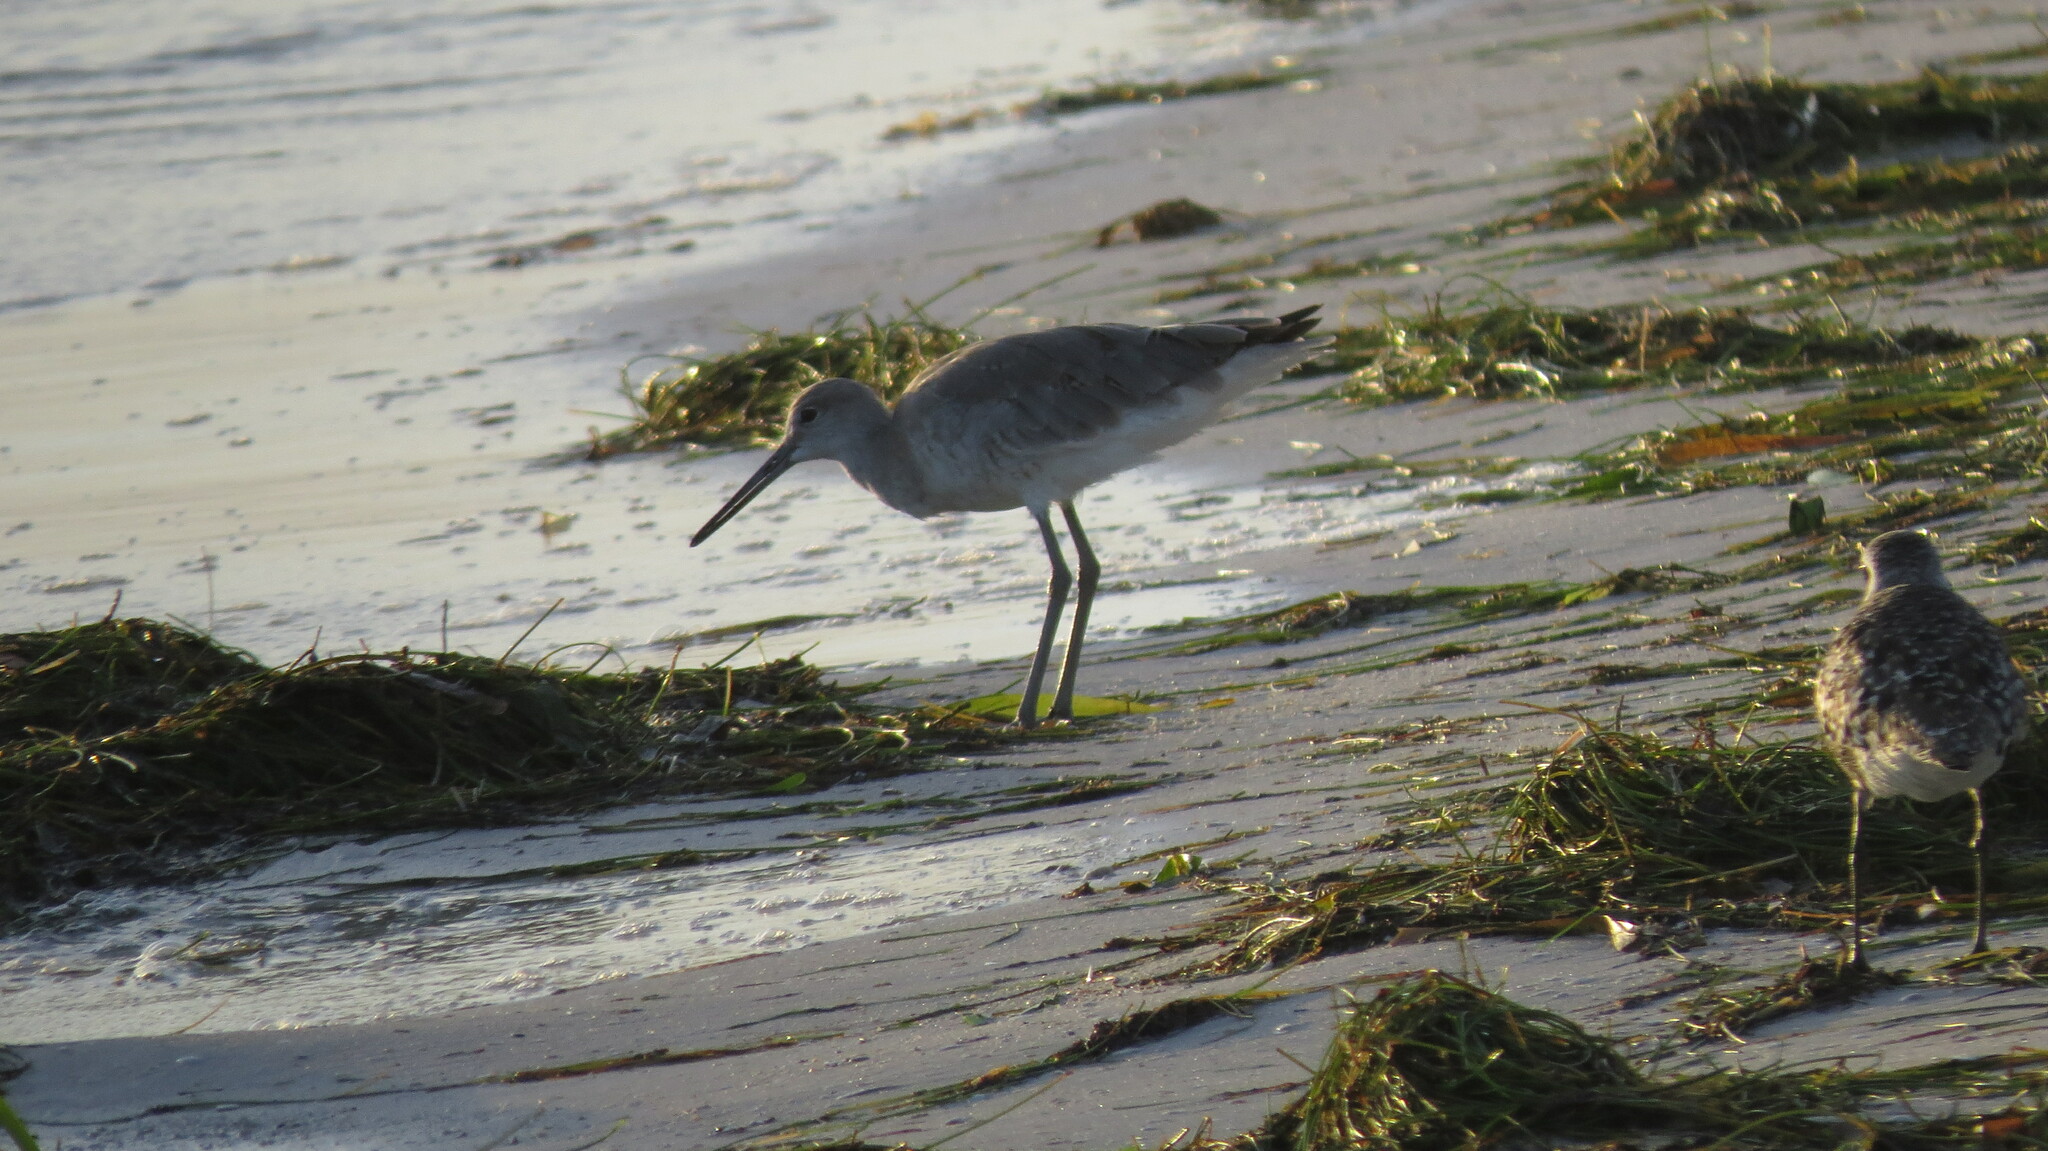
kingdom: Animalia
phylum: Chordata
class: Aves
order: Charadriiformes
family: Scolopacidae
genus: Tringa
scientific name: Tringa semipalmata
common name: Willet
